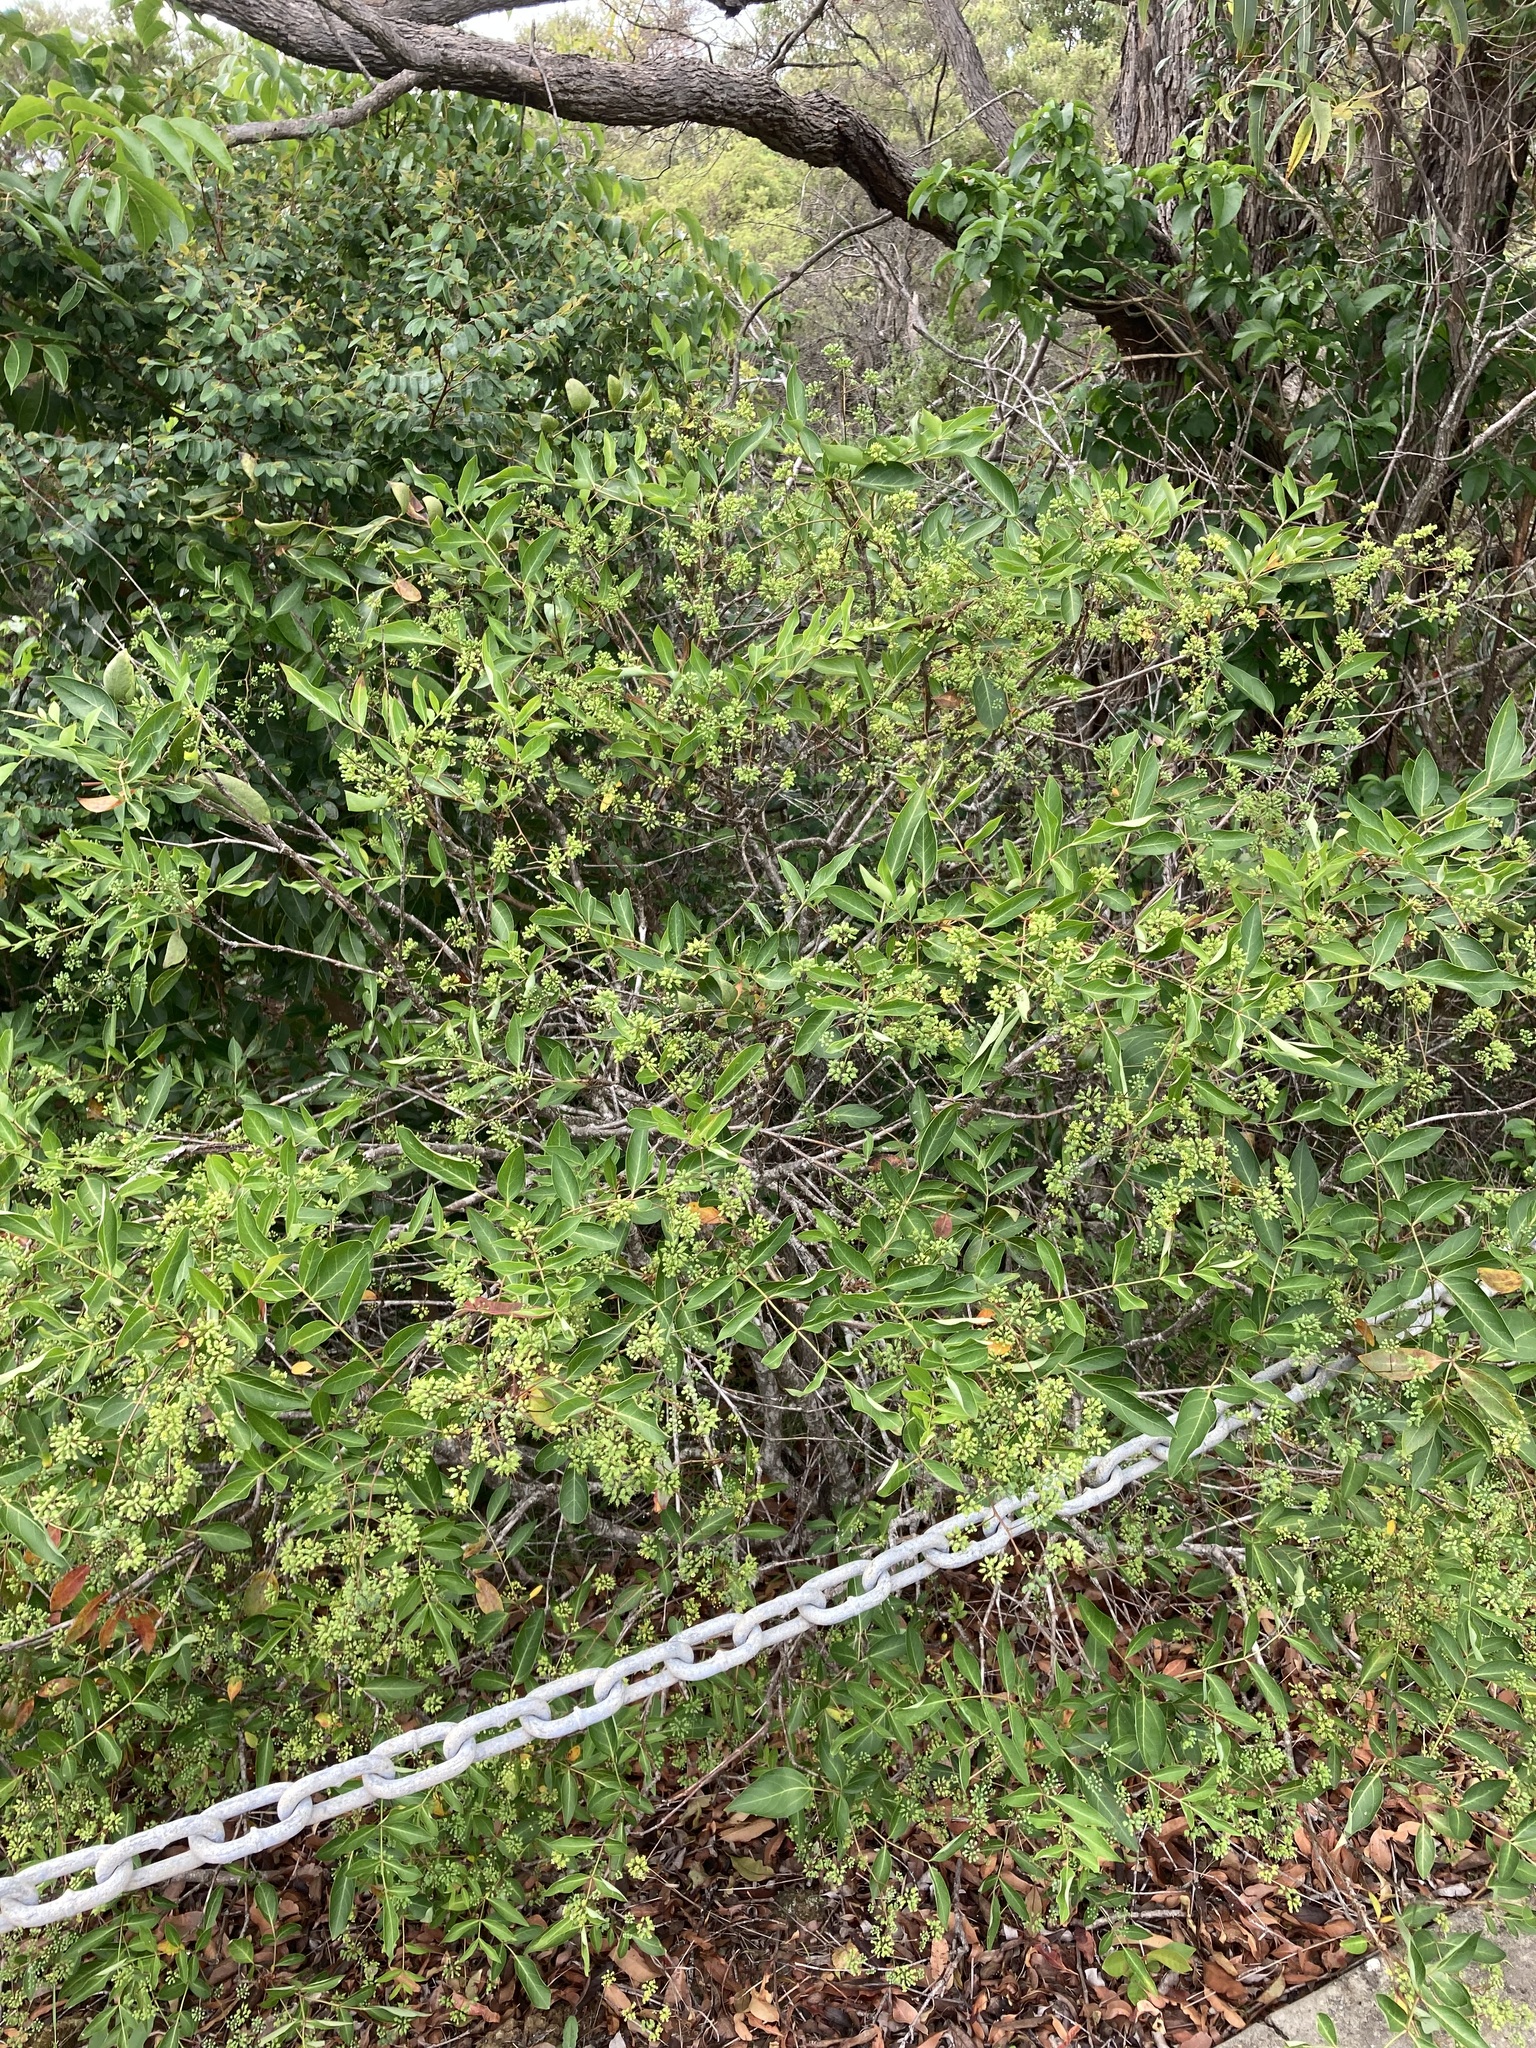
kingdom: Plantae
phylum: Tracheophyta
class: Magnoliopsida
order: Apiales
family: Araliaceae
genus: Polyscias
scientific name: Polyscias sambucifolia
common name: Elderberry-ash
